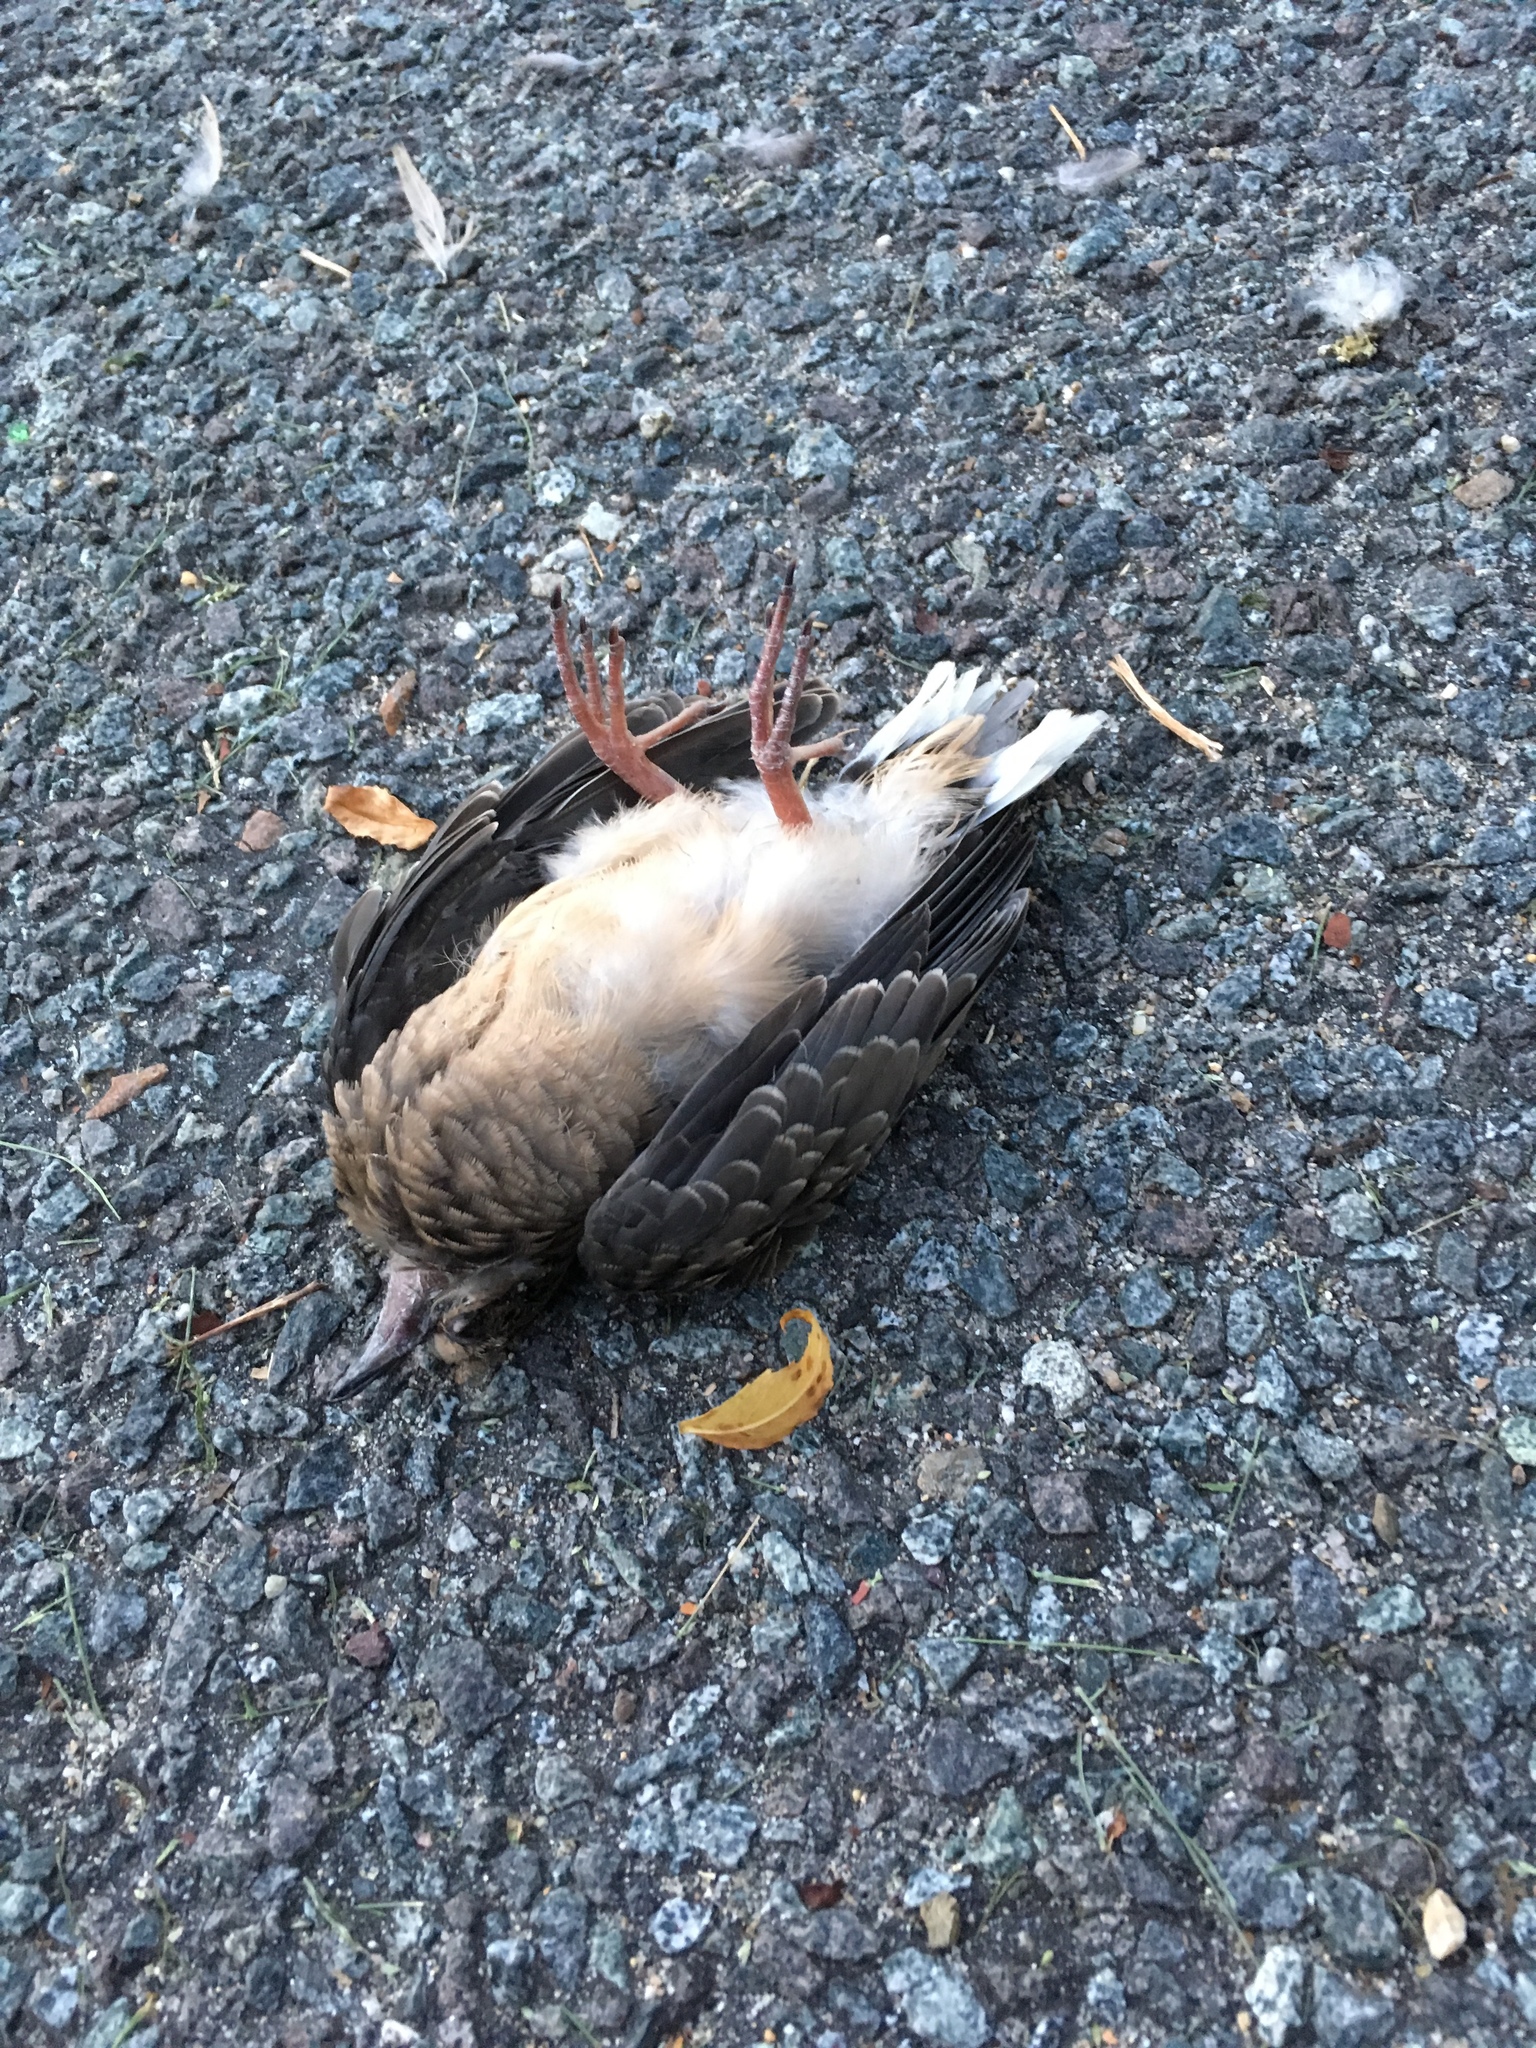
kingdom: Animalia
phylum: Chordata
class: Aves
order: Columbiformes
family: Columbidae
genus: Zenaida
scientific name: Zenaida macroura
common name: Mourning dove
